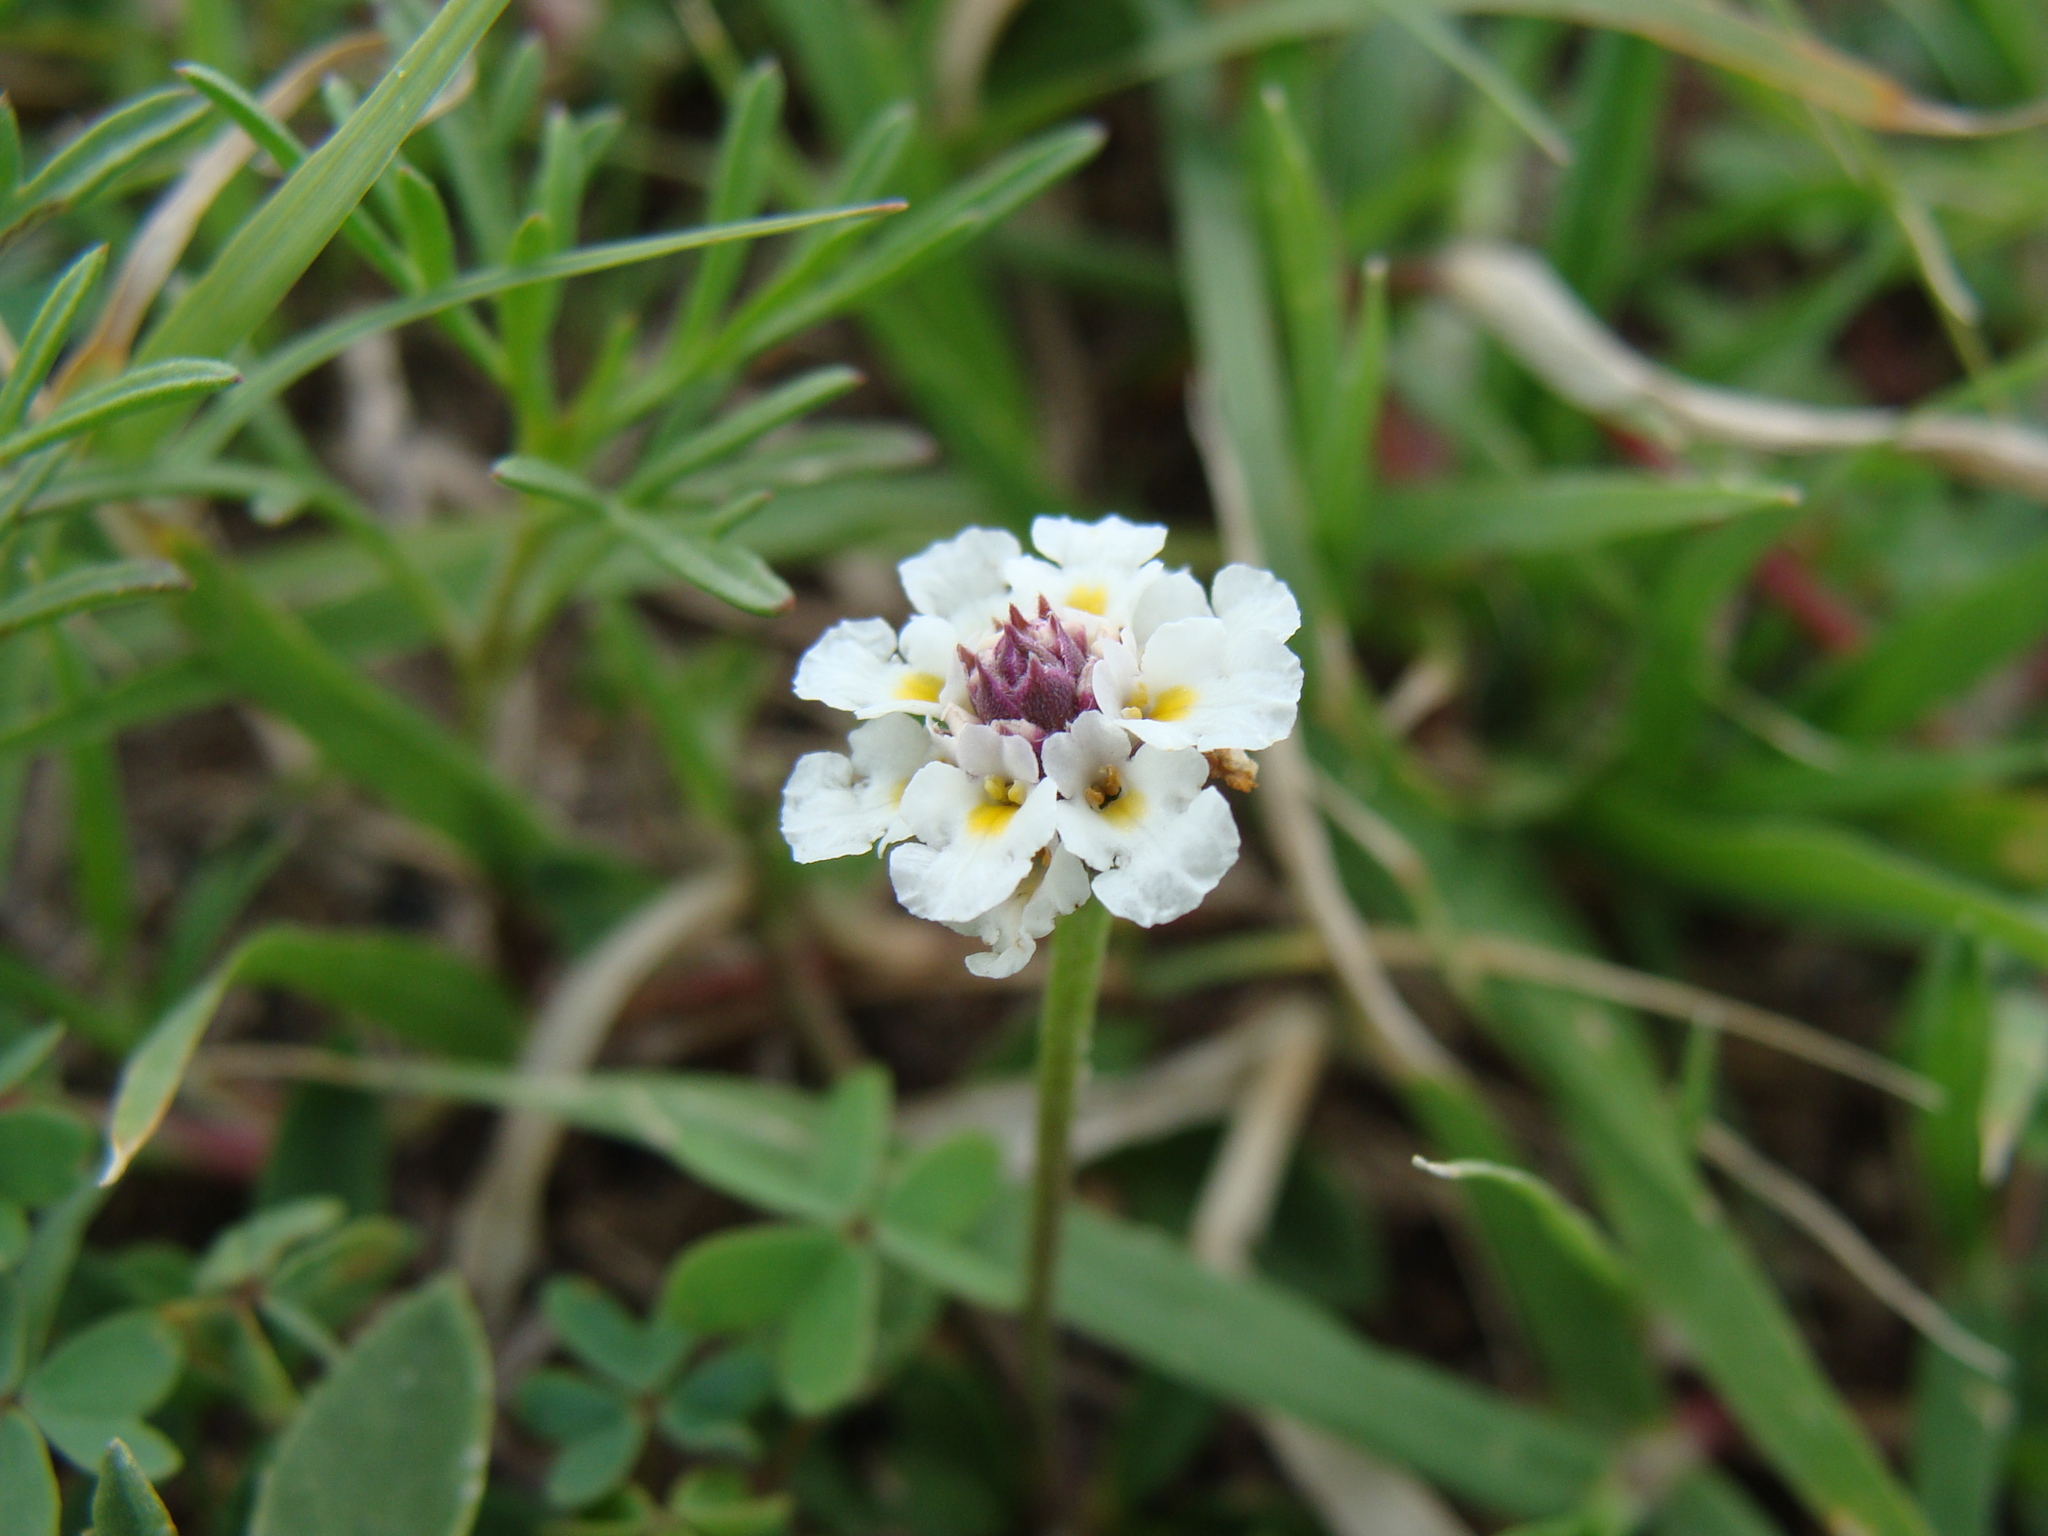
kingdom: Plantae
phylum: Tracheophyta
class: Magnoliopsida
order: Lamiales
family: Verbenaceae
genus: Phyla
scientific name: Phyla nodiflora
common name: Frogfruit
